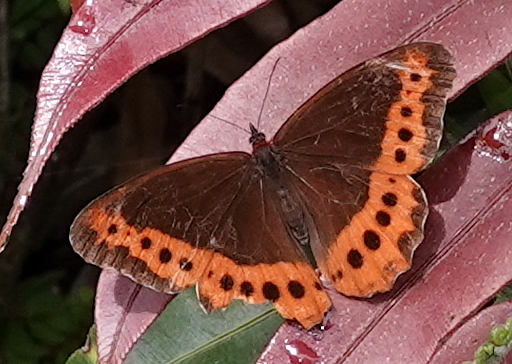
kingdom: Animalia
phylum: Arthropoda
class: Insecta
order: Lepidoptera
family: Nymphalidae
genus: Oxeoschistus
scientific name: Oxeoschistus puerta
